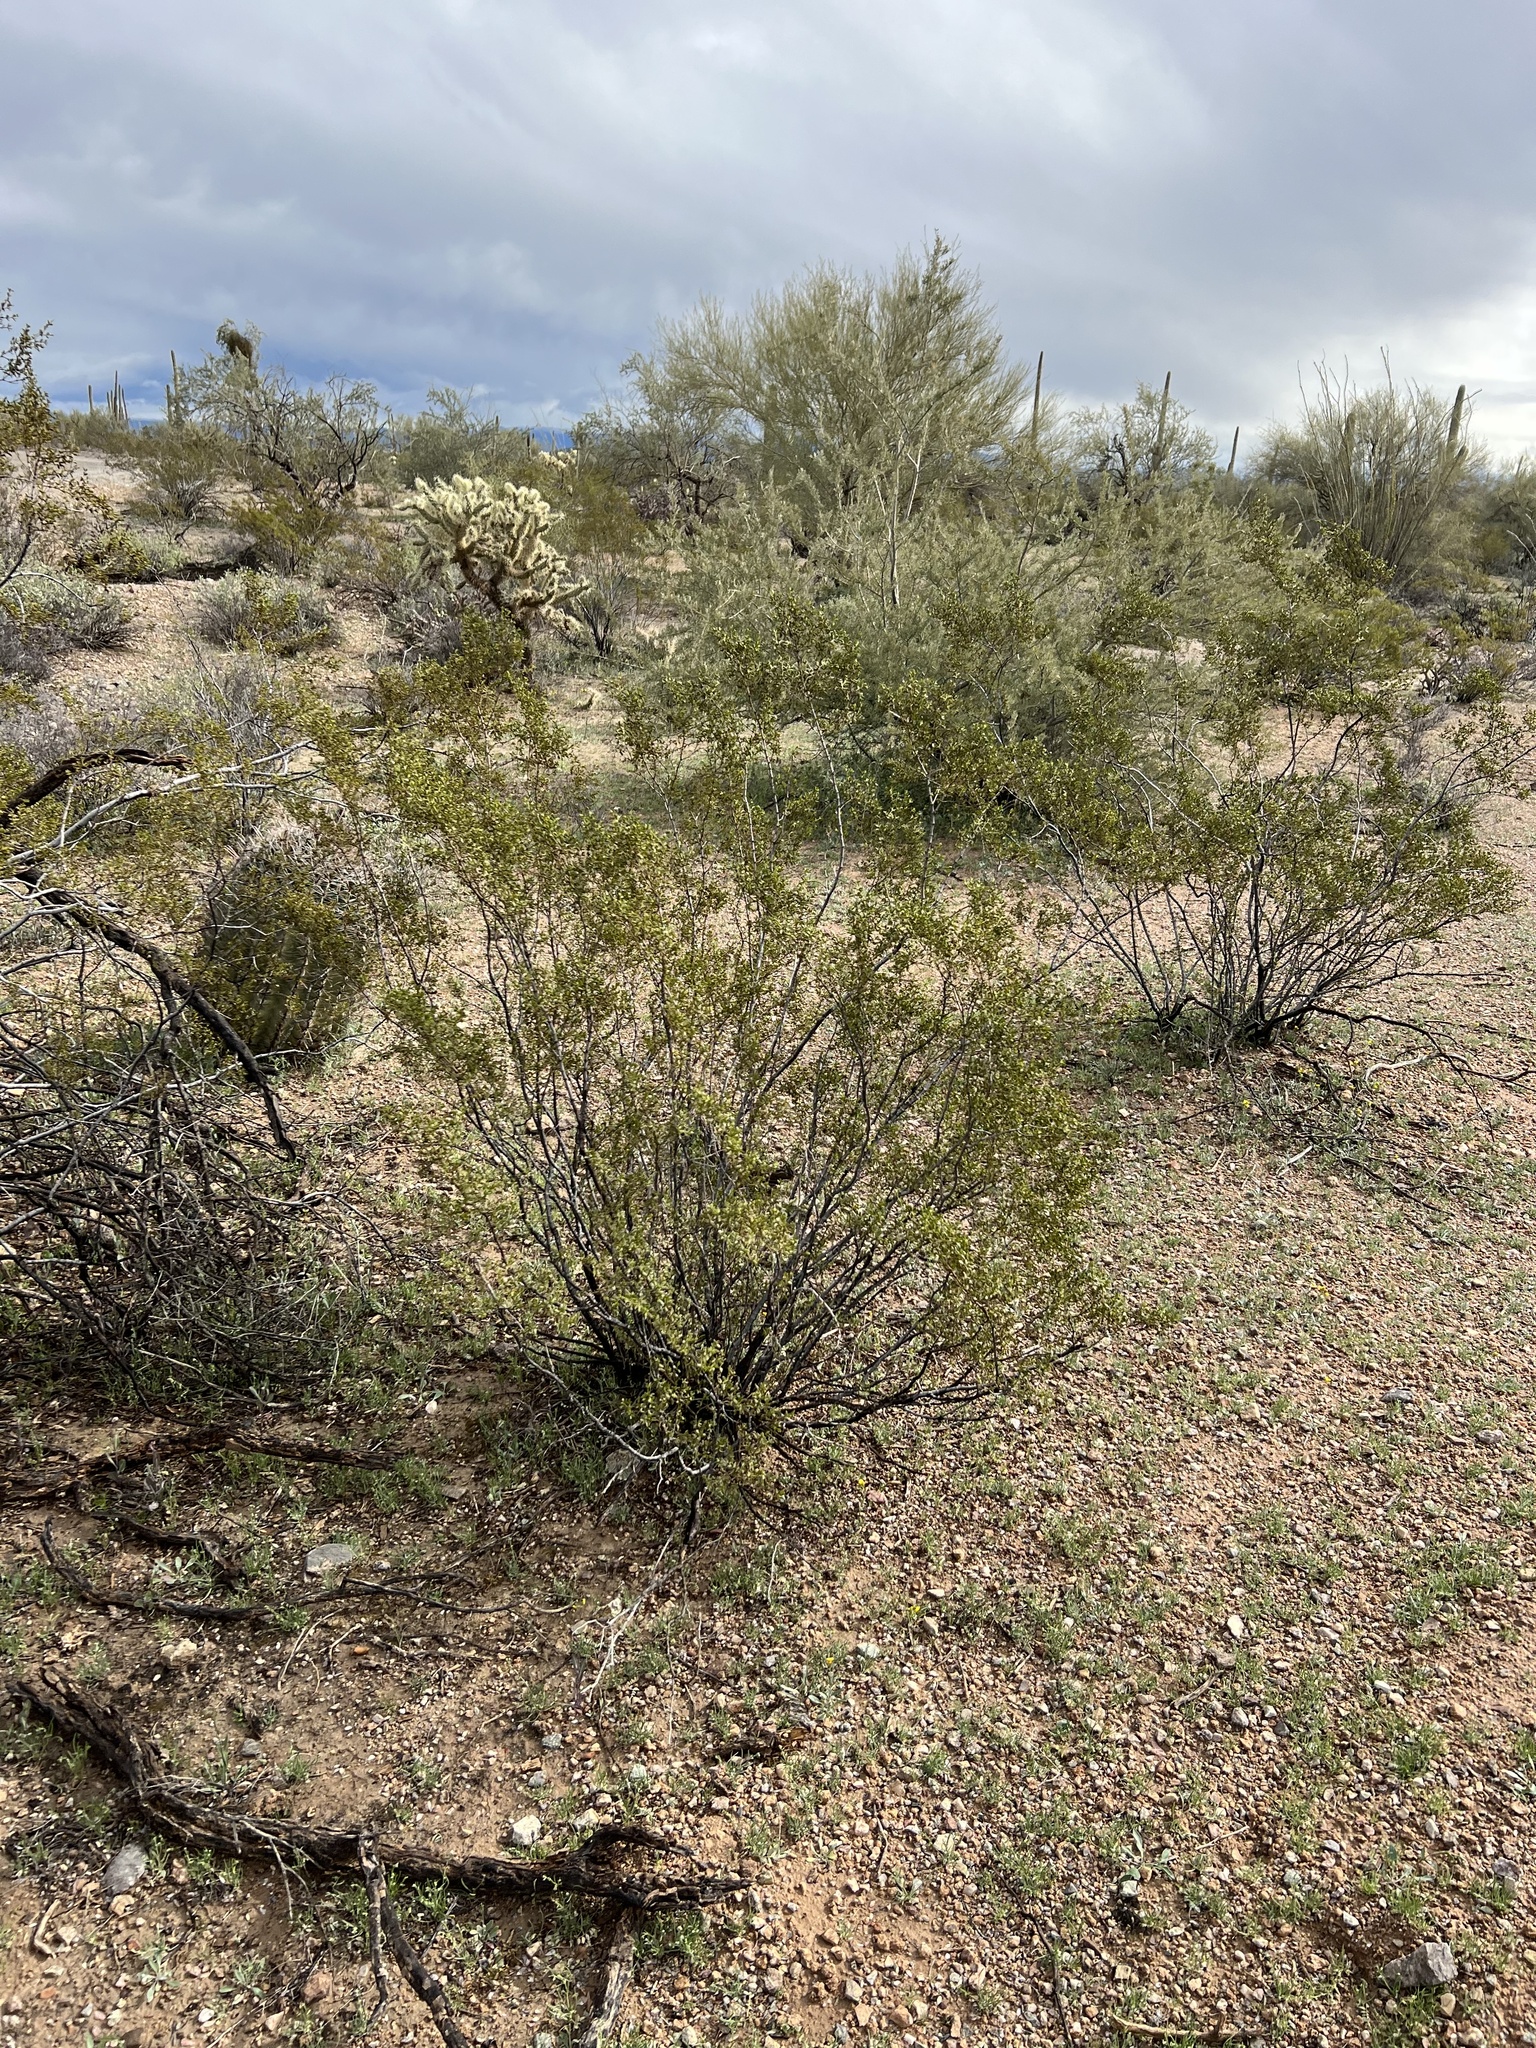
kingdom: Plantae
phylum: Tracheophyta
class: Magnoliopsida
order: Zygophyllales
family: Zygophyllaceae
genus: Larrea
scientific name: Larrea tridentata
